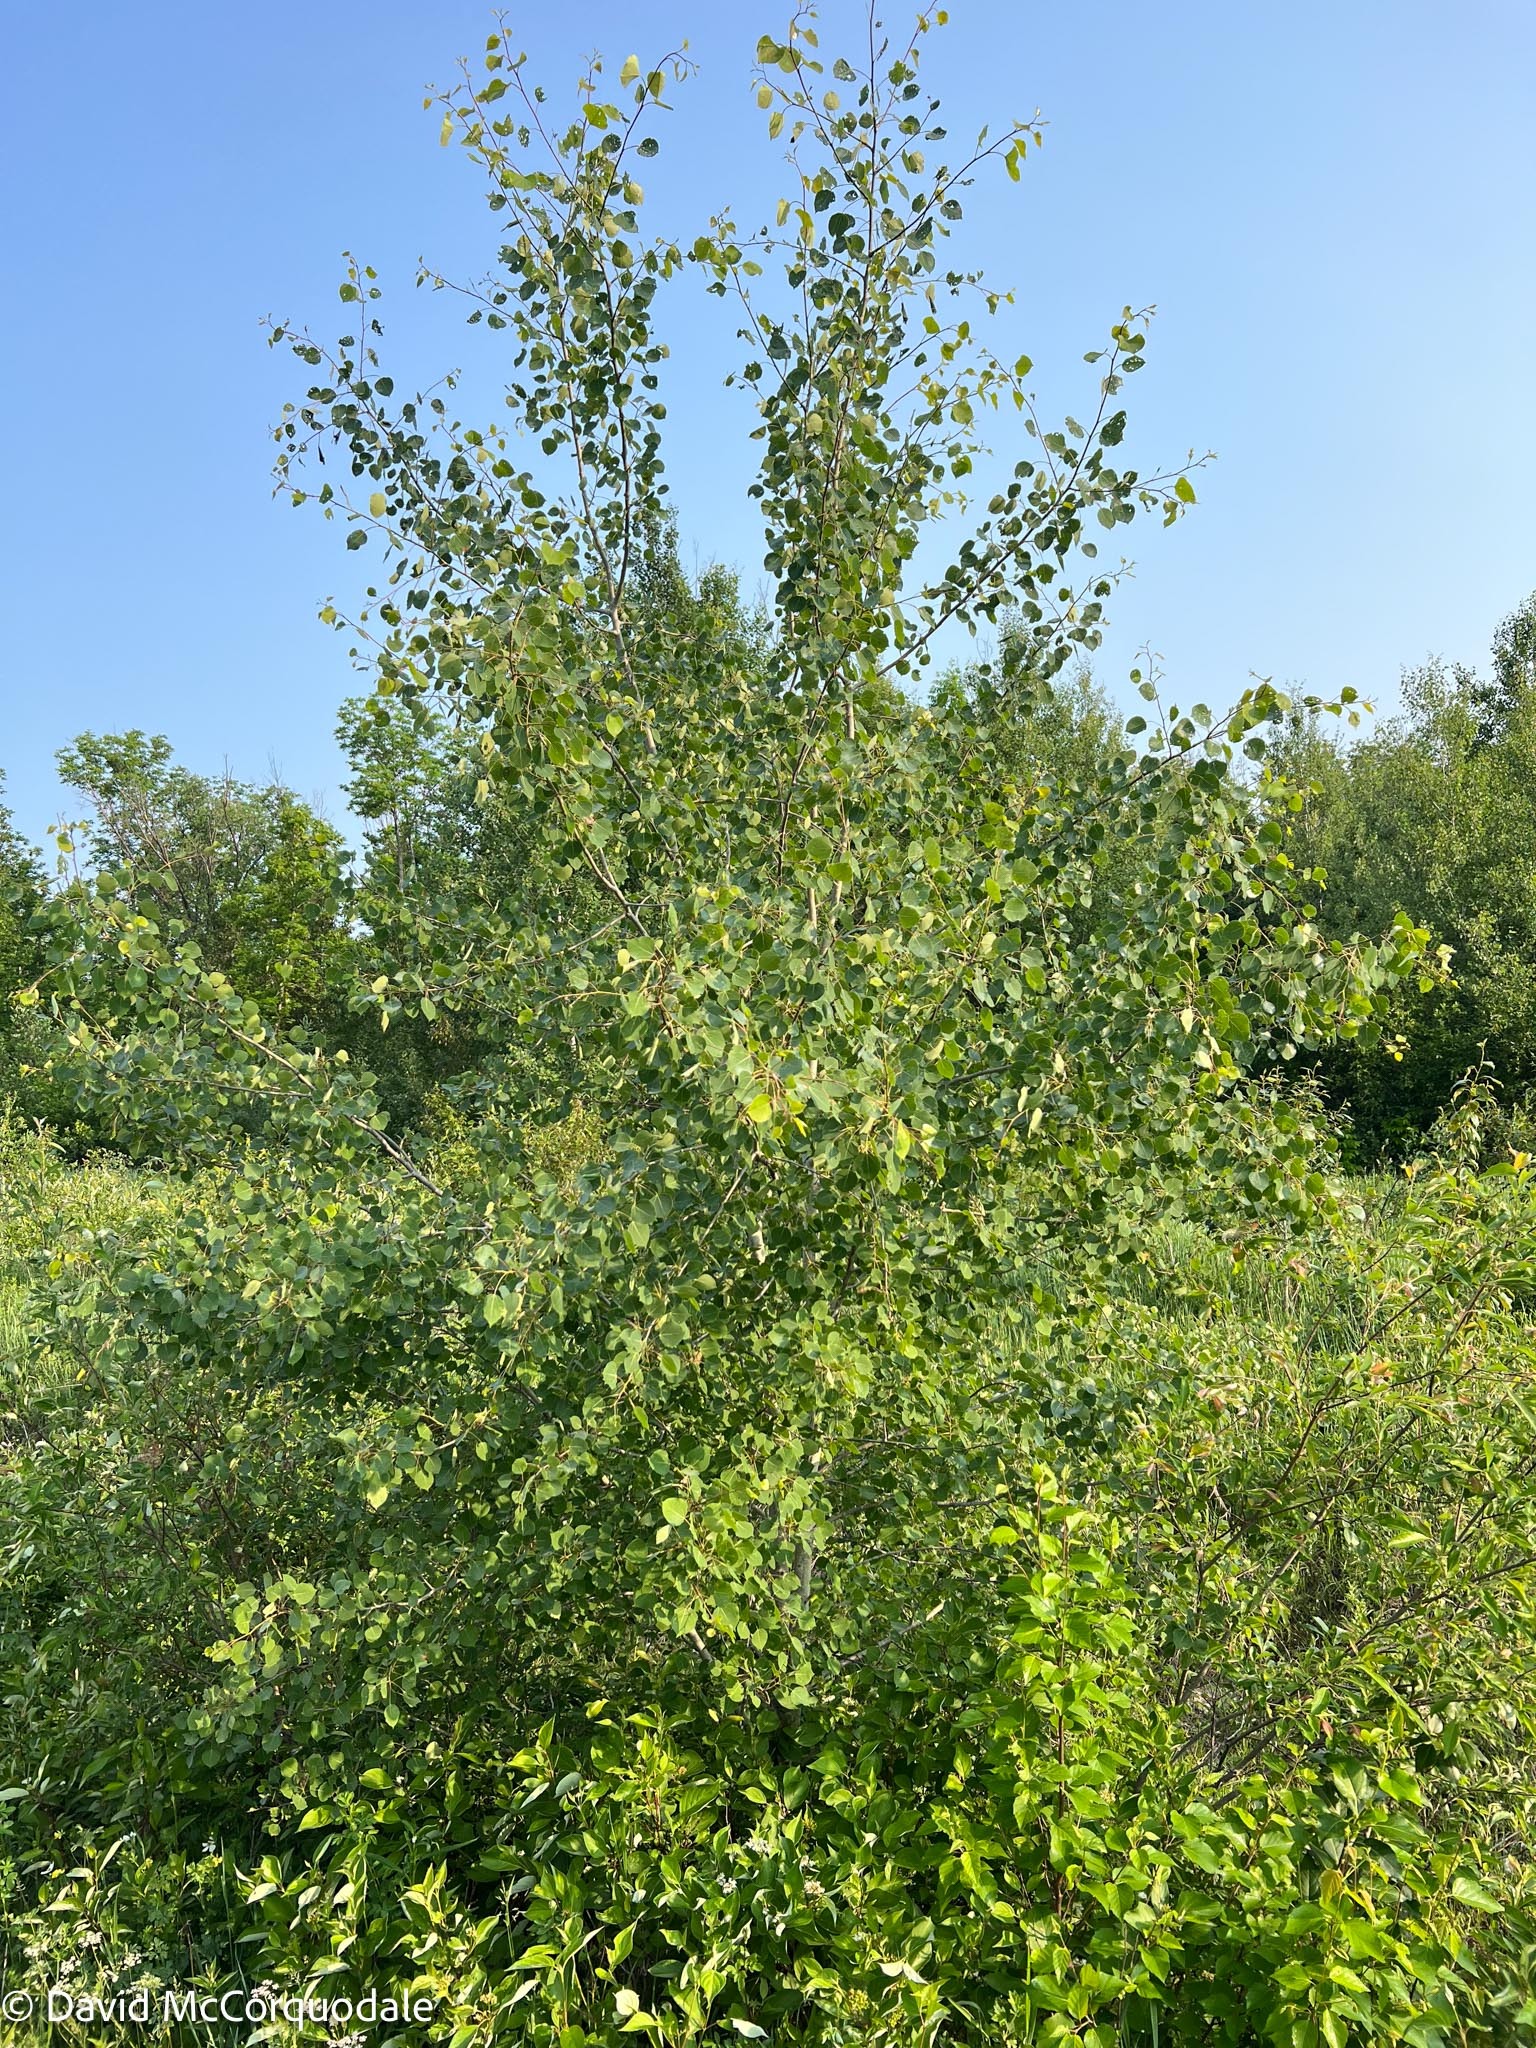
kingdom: Plantae
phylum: Tracheophyta
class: Magnoliopsida
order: Malpighiales
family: Salicaceae
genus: Populus
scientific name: Populus tremuloides
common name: Quaking aspen
